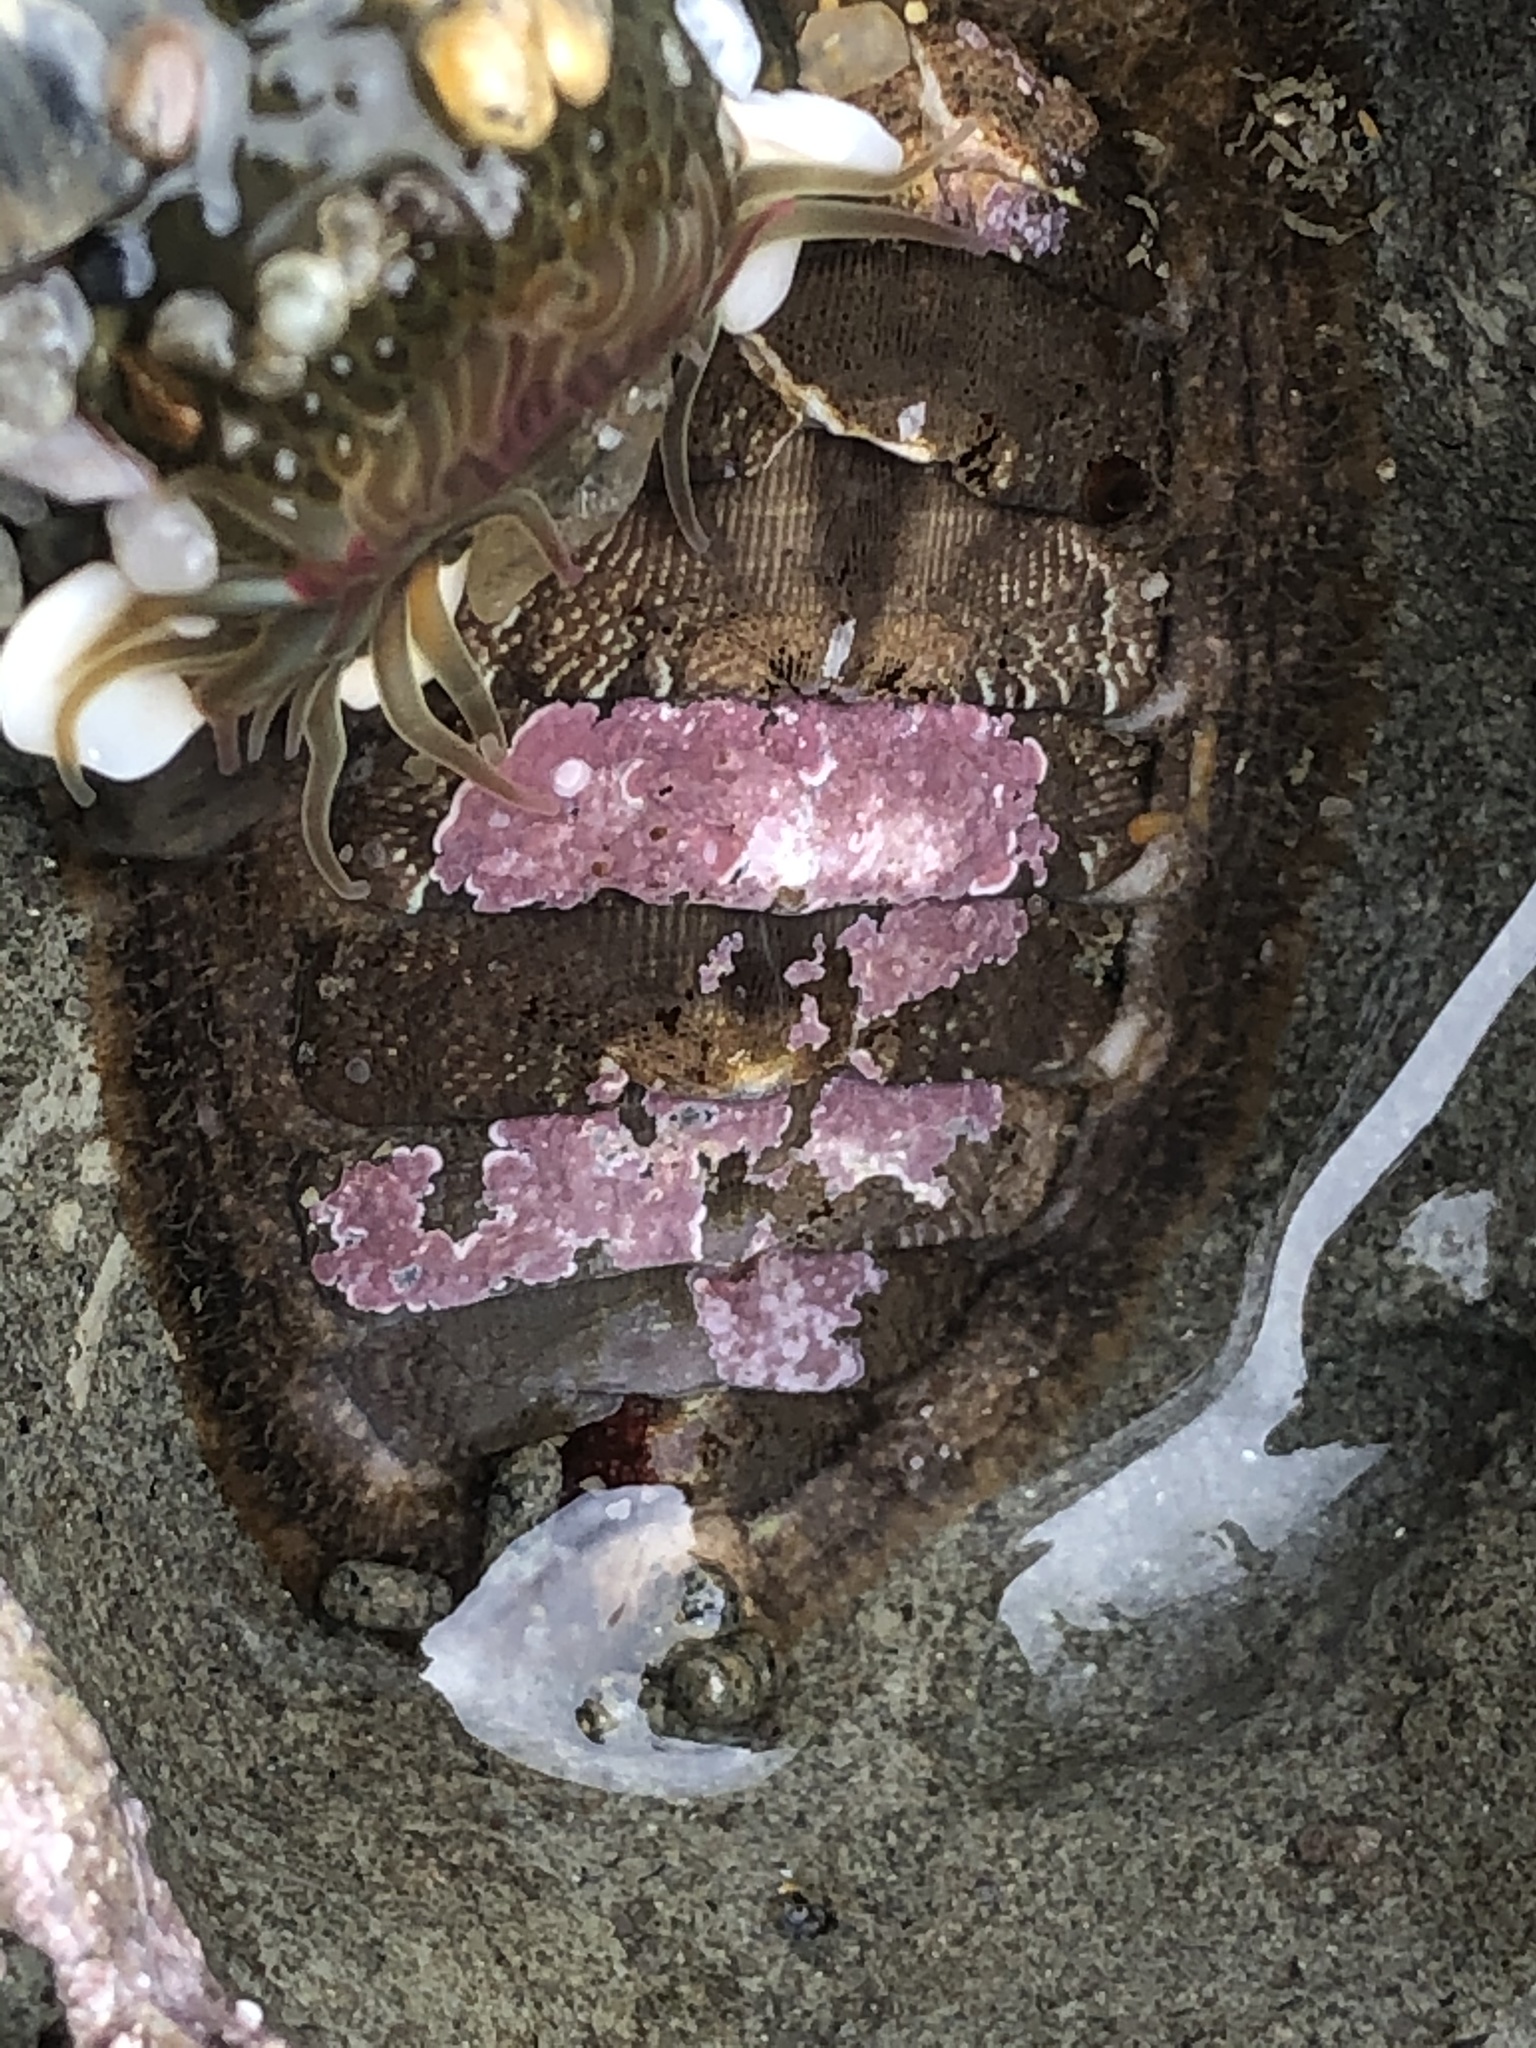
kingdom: Animalia
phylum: Mollusca
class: Polyplacophora
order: Chitonida
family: Mopaliidae
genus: Mopalia
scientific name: Mopalia hindsii
